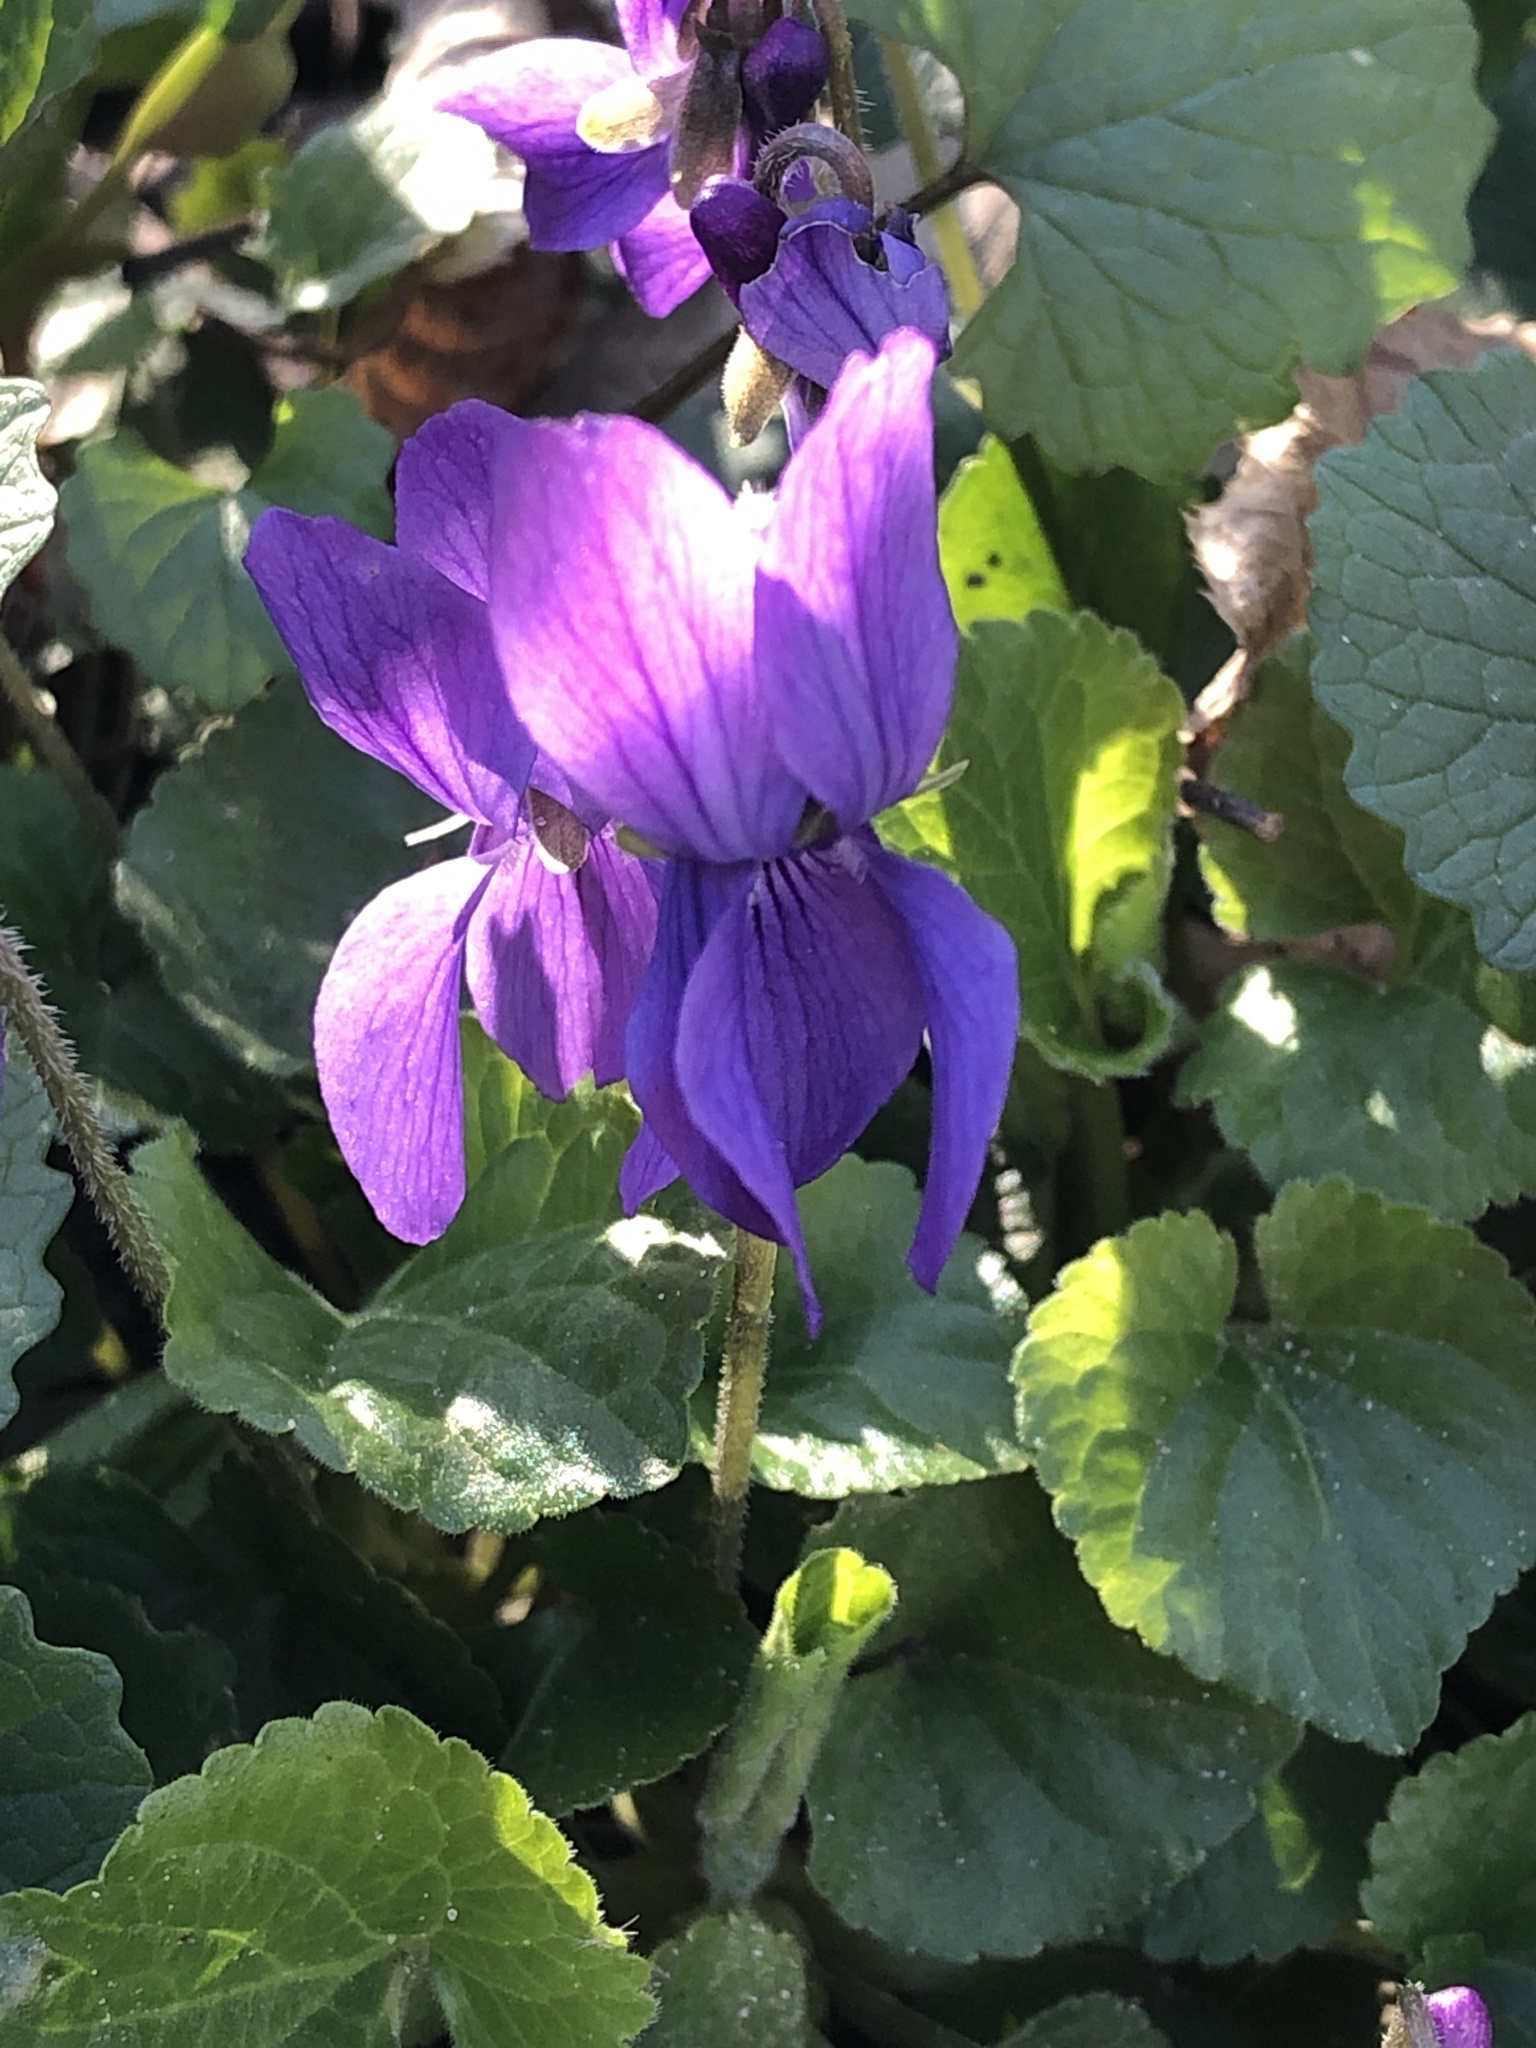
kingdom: Plantae
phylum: Tracheophyta
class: Magnoliopsida
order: Malpighiales
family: Violaceae
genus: Viola
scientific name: Viola odorata
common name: Sweet violet
